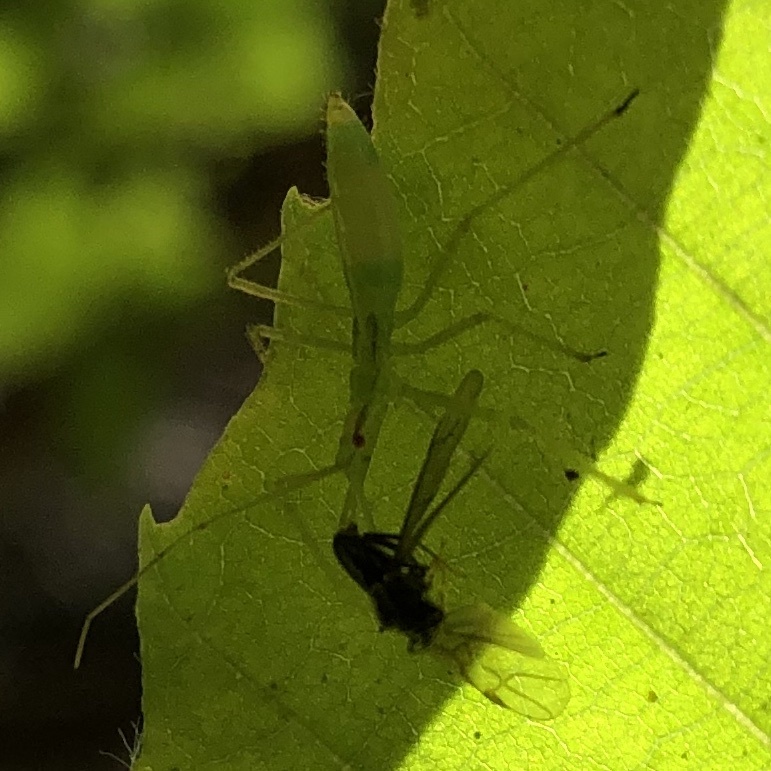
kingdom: Animalia
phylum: Arthropoda
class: Insecta
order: Hemiptera
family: Reduviidae
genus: Zelus
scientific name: Zelus luridus
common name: Pale green assassin bug
